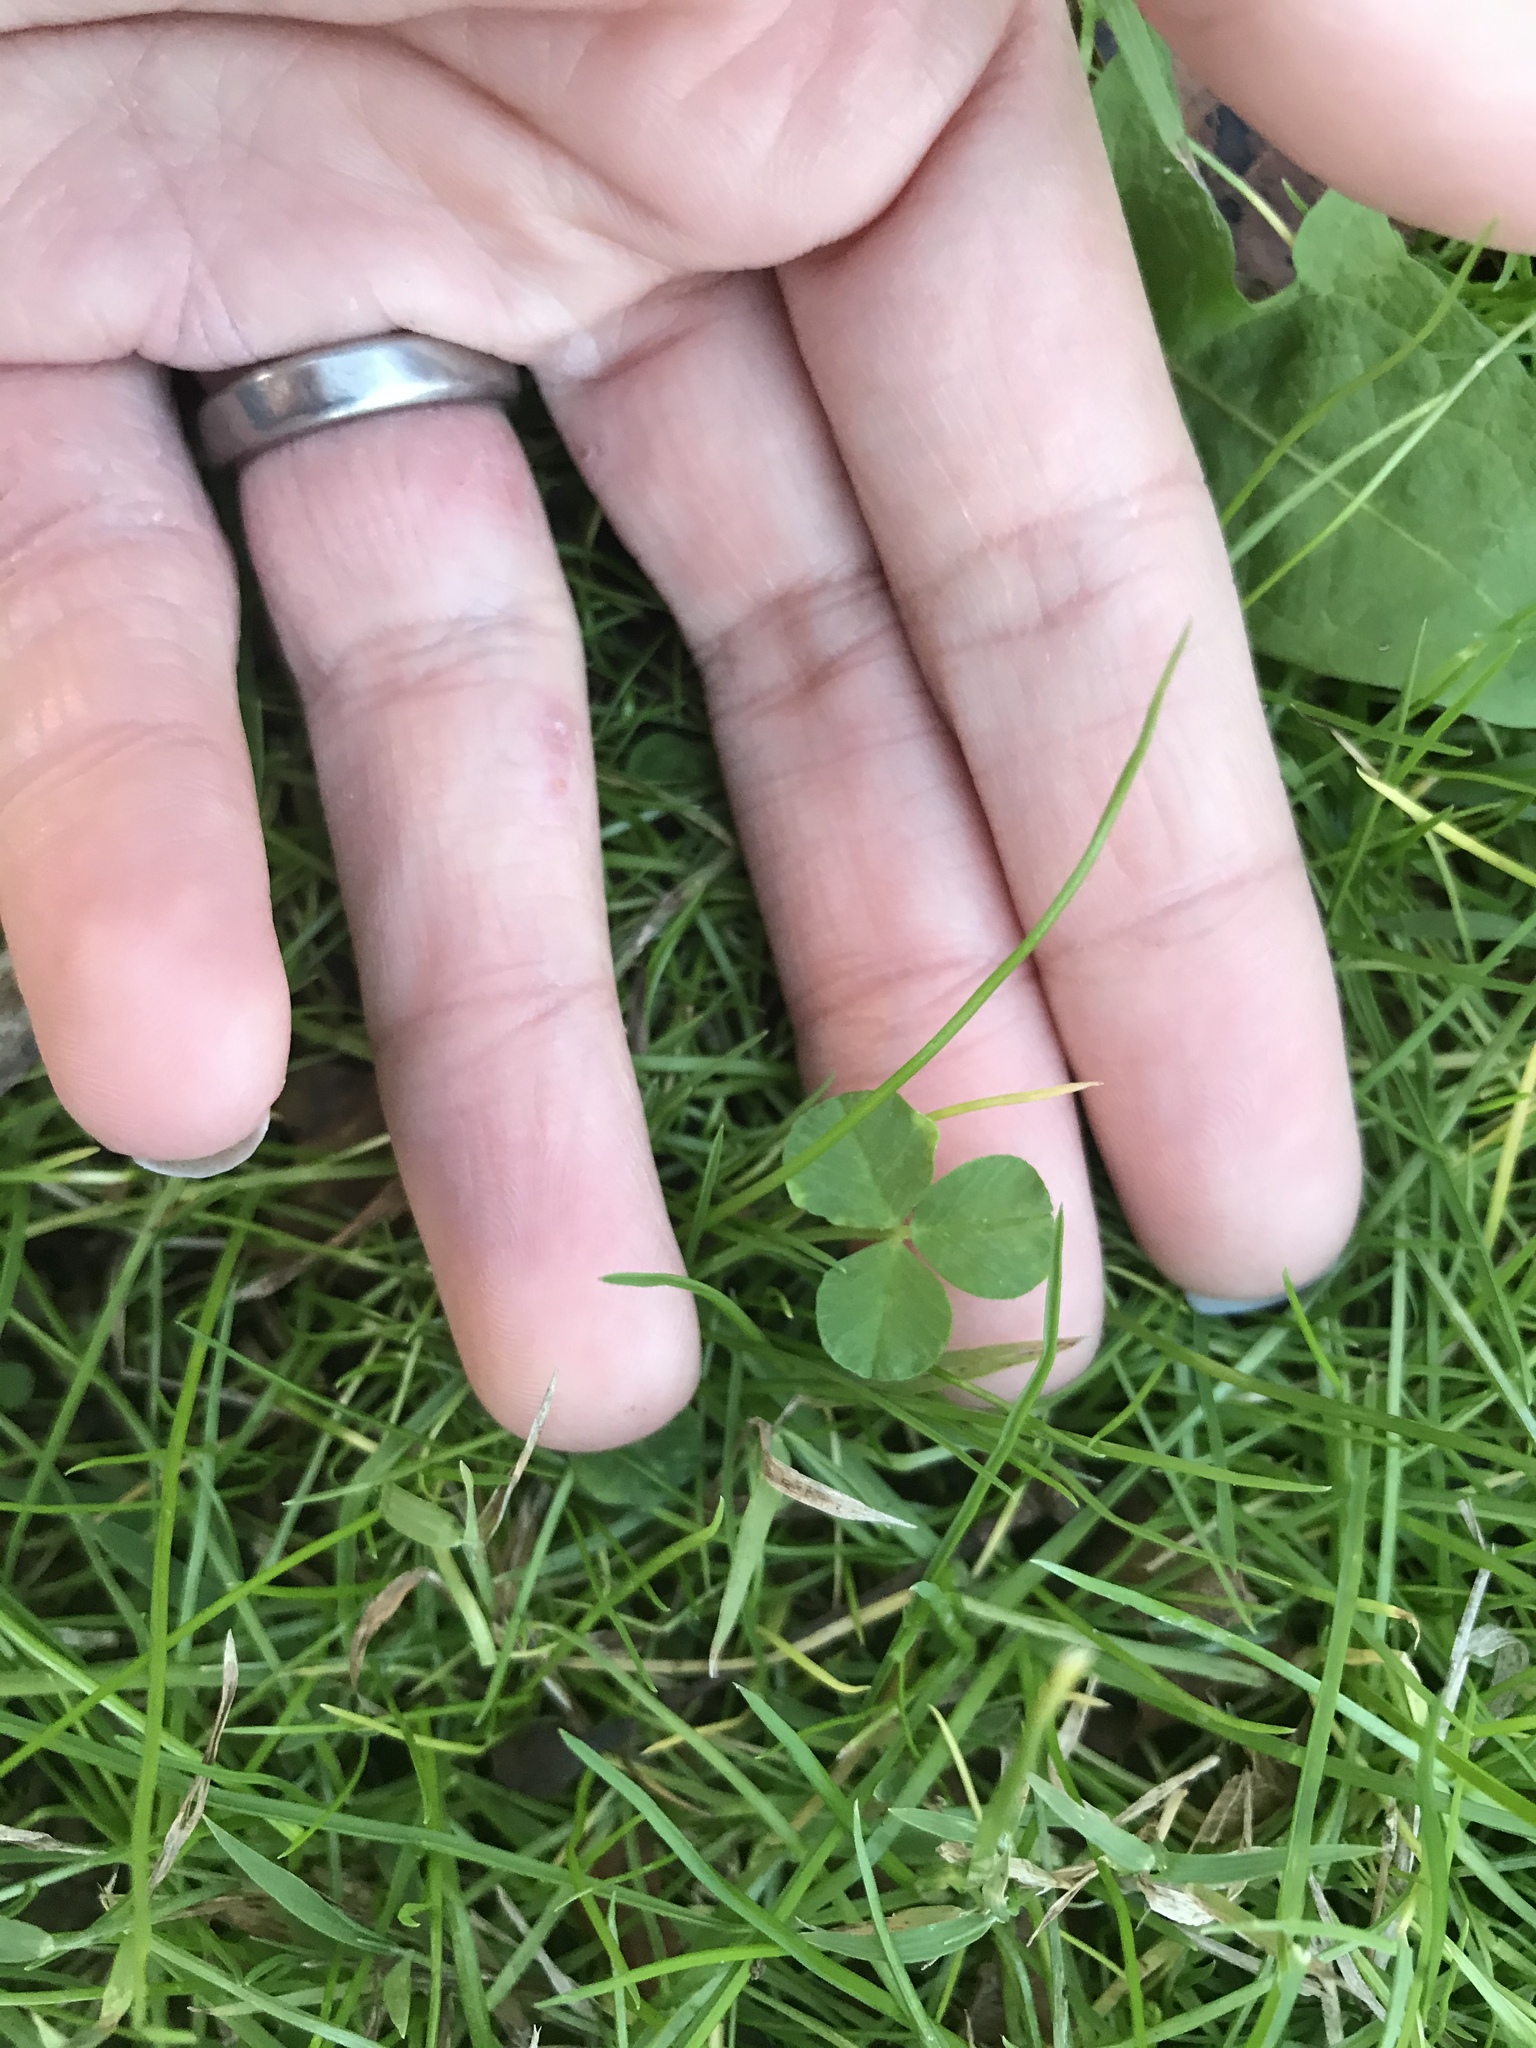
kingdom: Plantae
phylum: Tracheophyta
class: Magnoliopsida
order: Fabales
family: Fabaceae
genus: Trifolium
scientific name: Trifolium repens
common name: White clover
